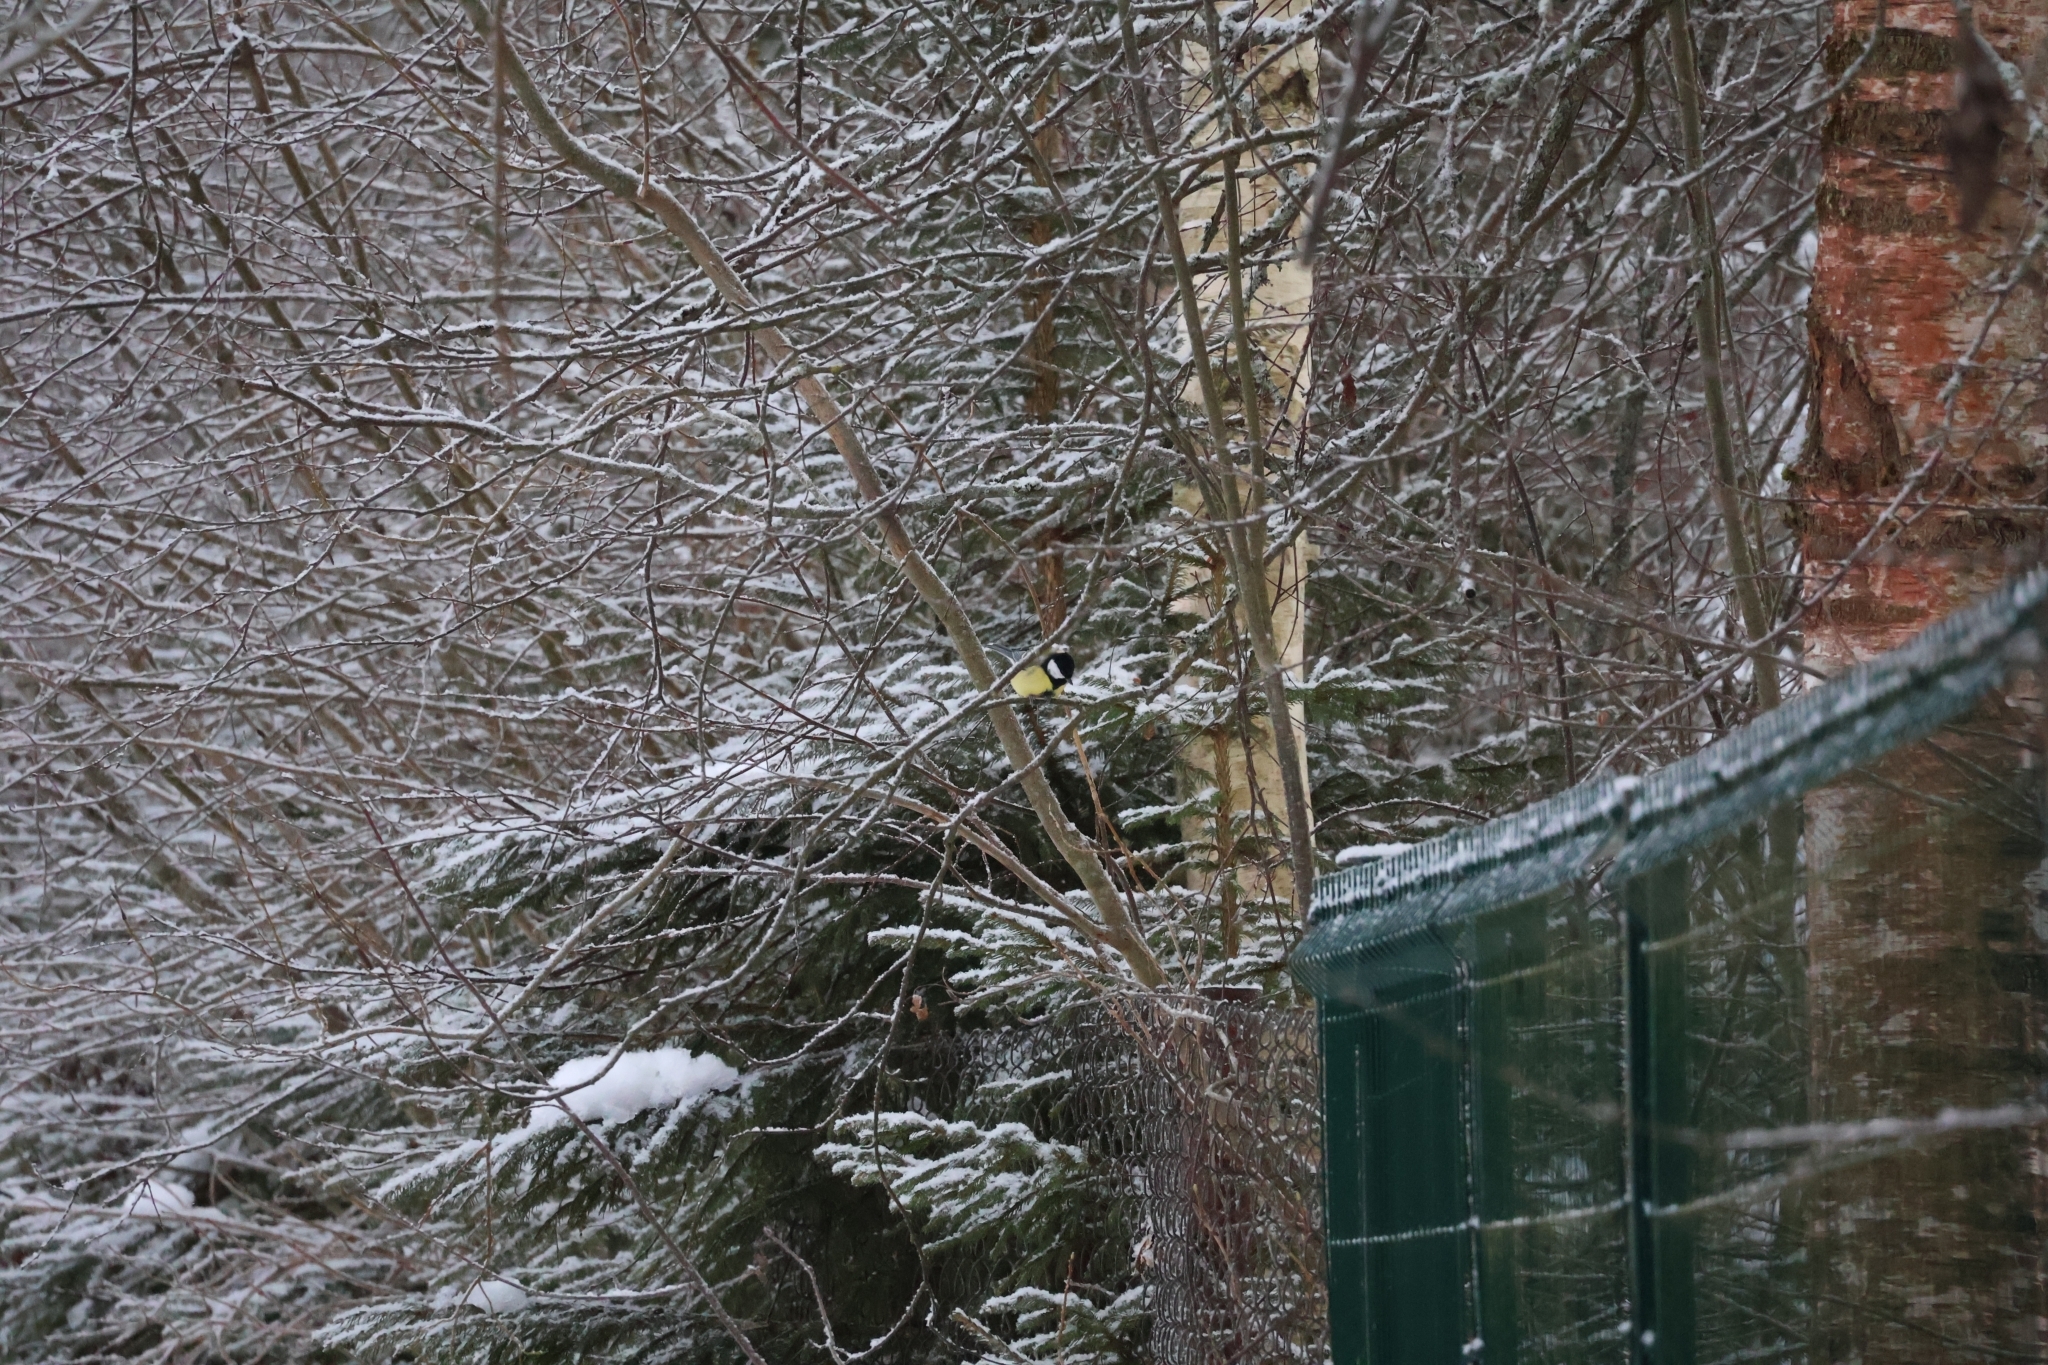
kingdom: Animalia
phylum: Chordata
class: Aves
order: Passeriformes
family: Paridae
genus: Parus
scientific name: Parus major
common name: Great tit
